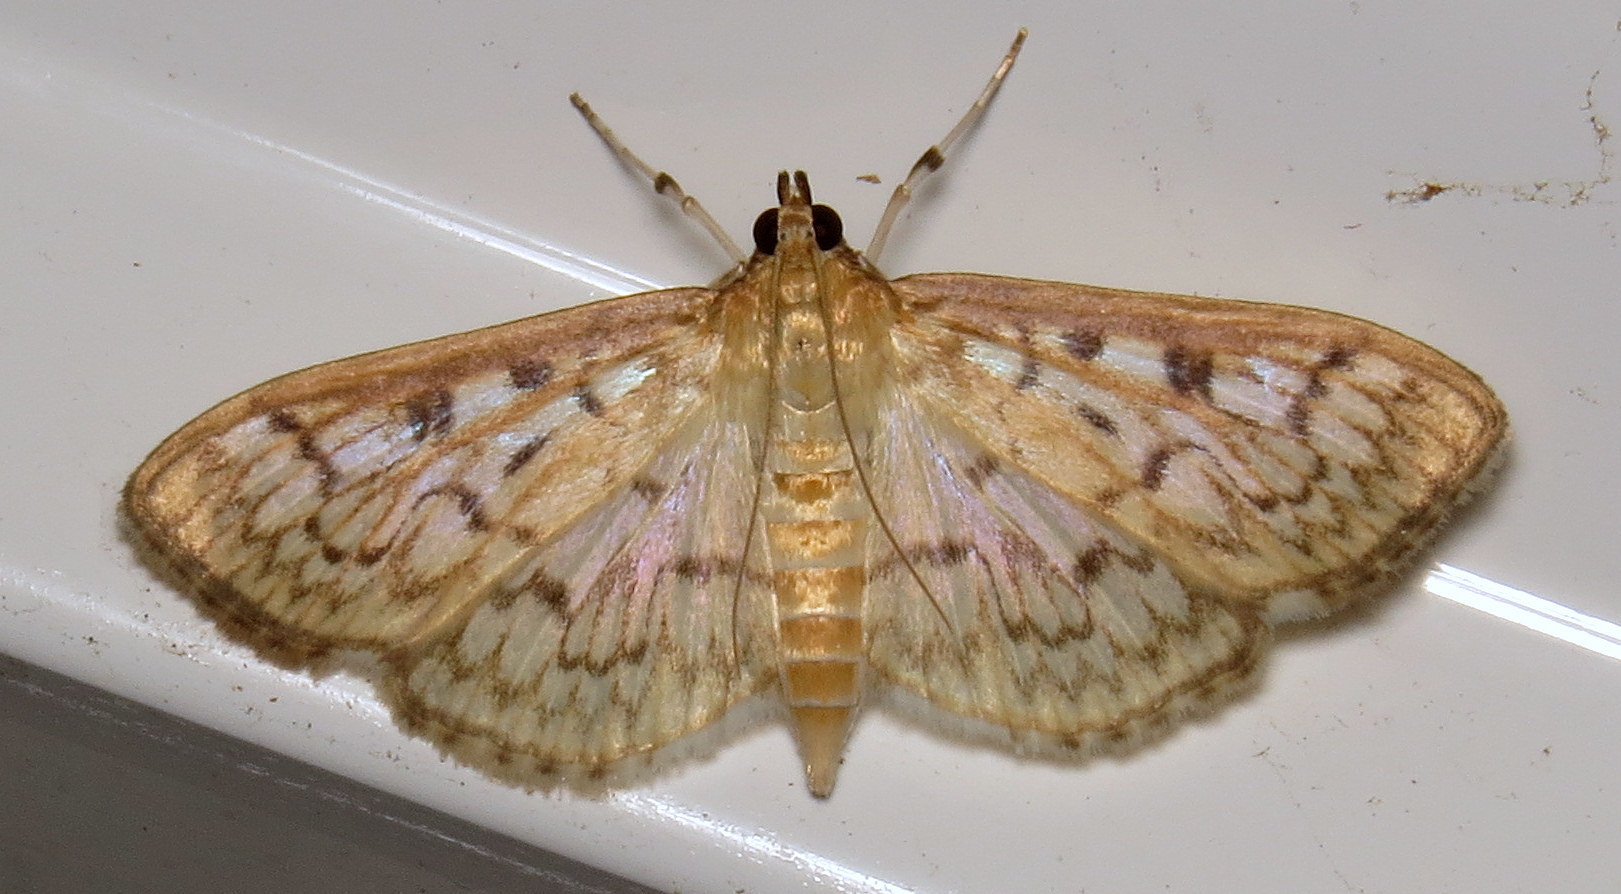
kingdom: Animalia
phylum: Arthropoda
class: Insecta
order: Lepidoptera
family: Crambidae
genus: Herpetogramma
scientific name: Herpetogramma pertextalis
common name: Bold-feathered grass moth
